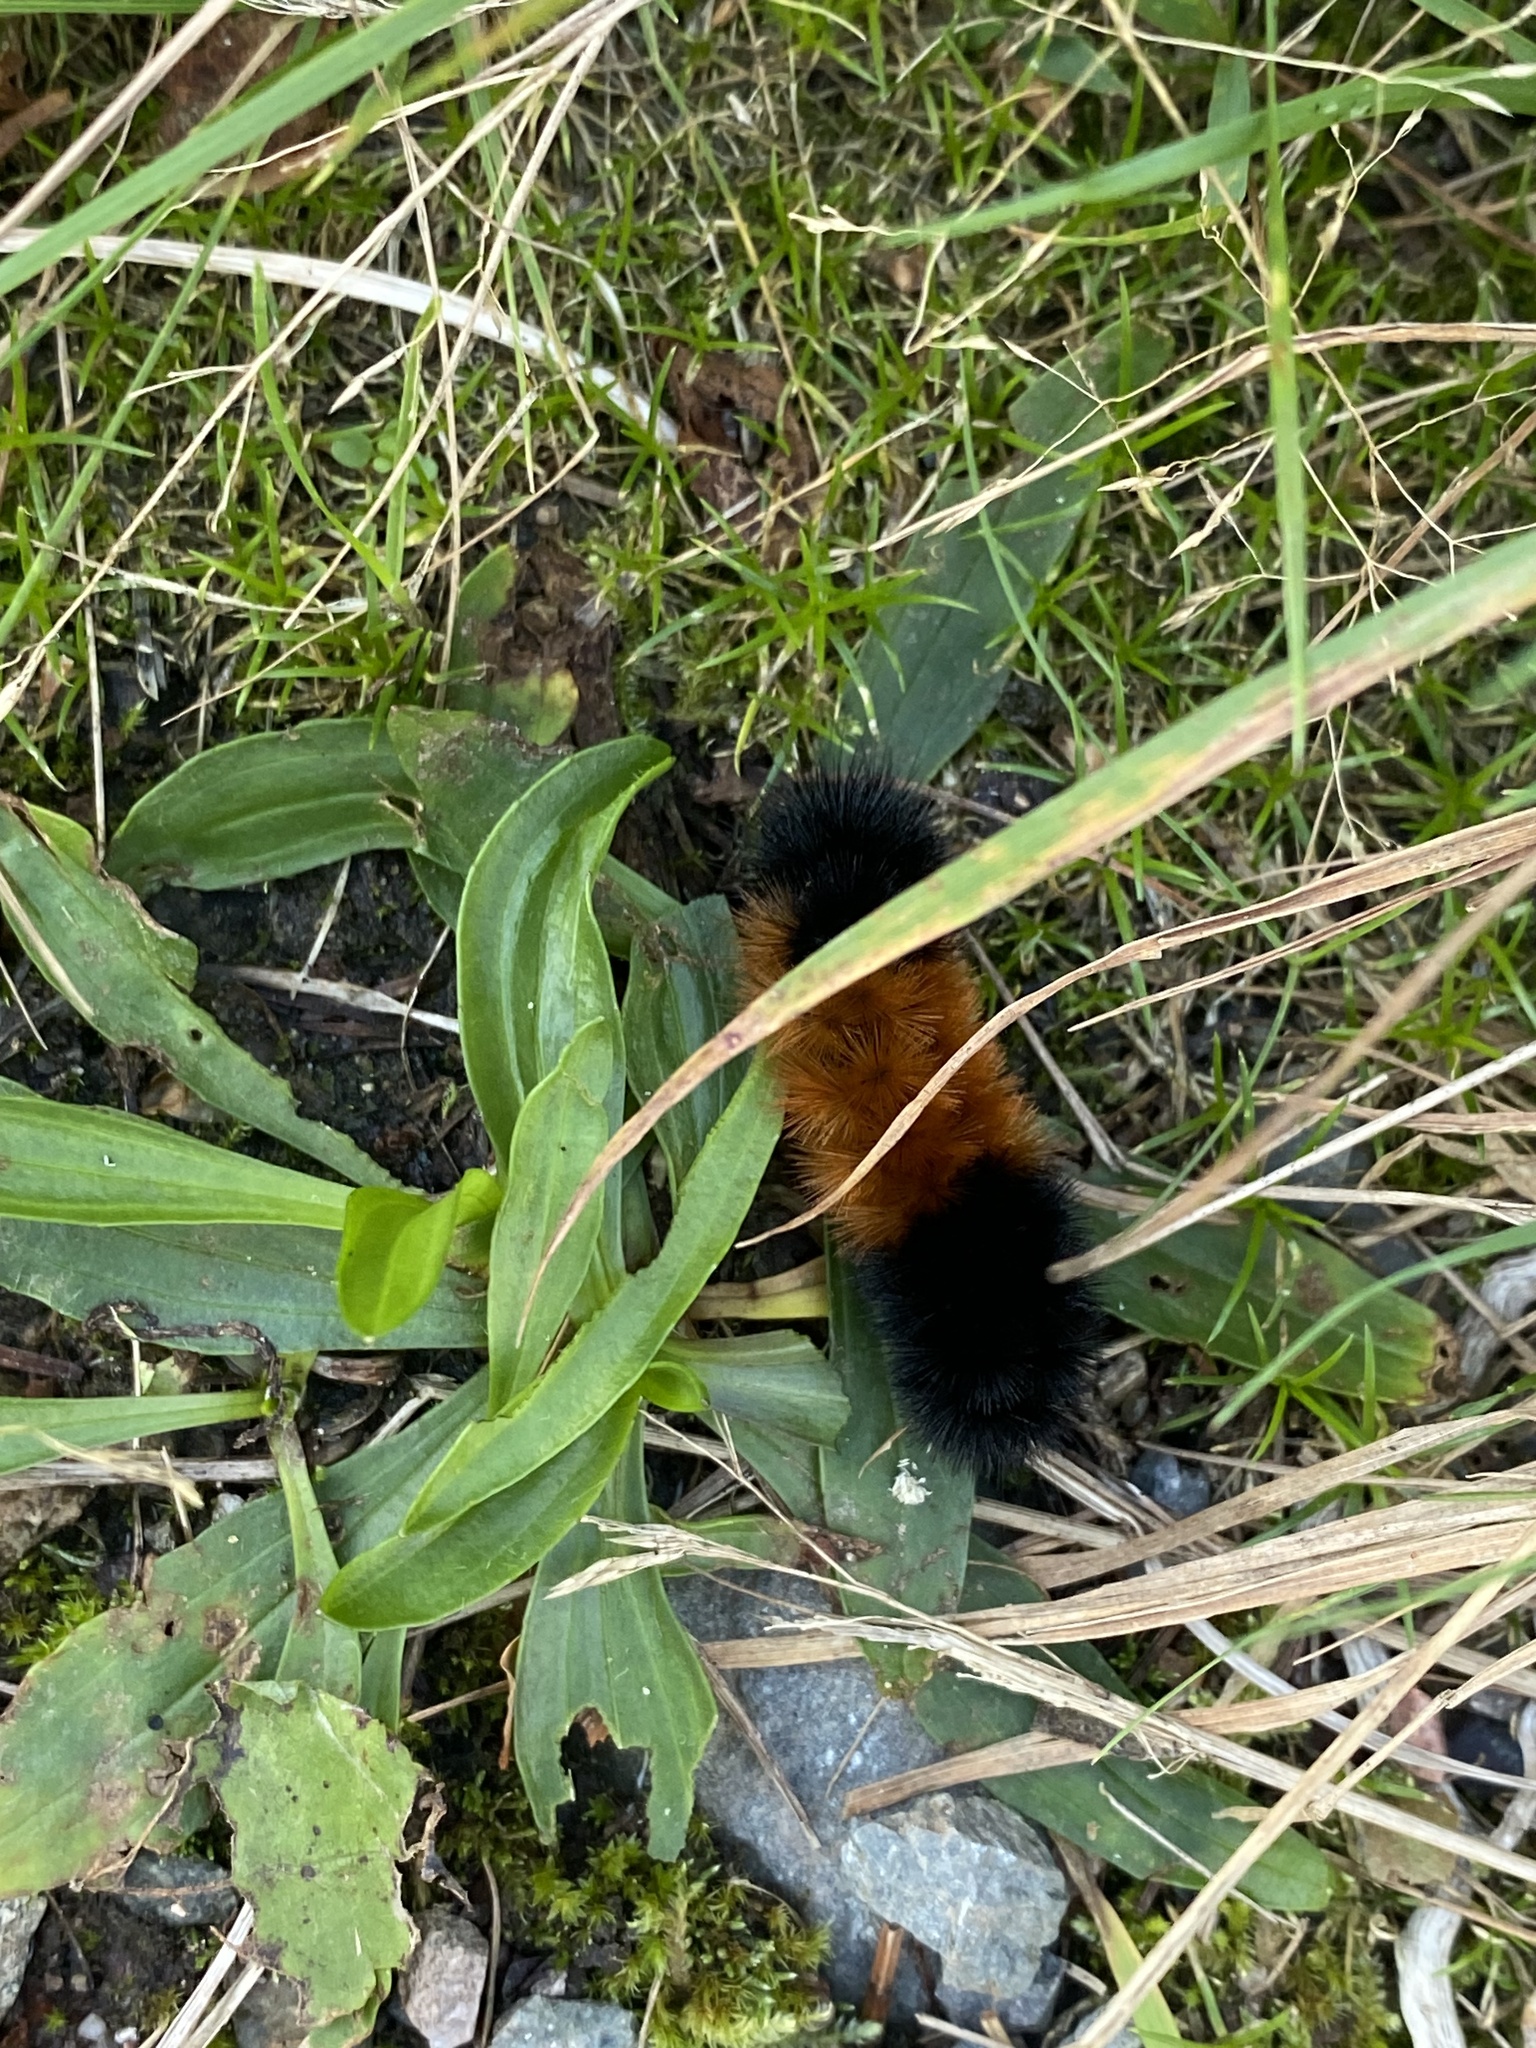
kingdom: Animalia
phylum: Arthropoda
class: Insecta
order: Lepidoptera
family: Erebidae
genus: Pyrrharctia
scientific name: Pyrrharctia isabella
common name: Isabella tiger moth
